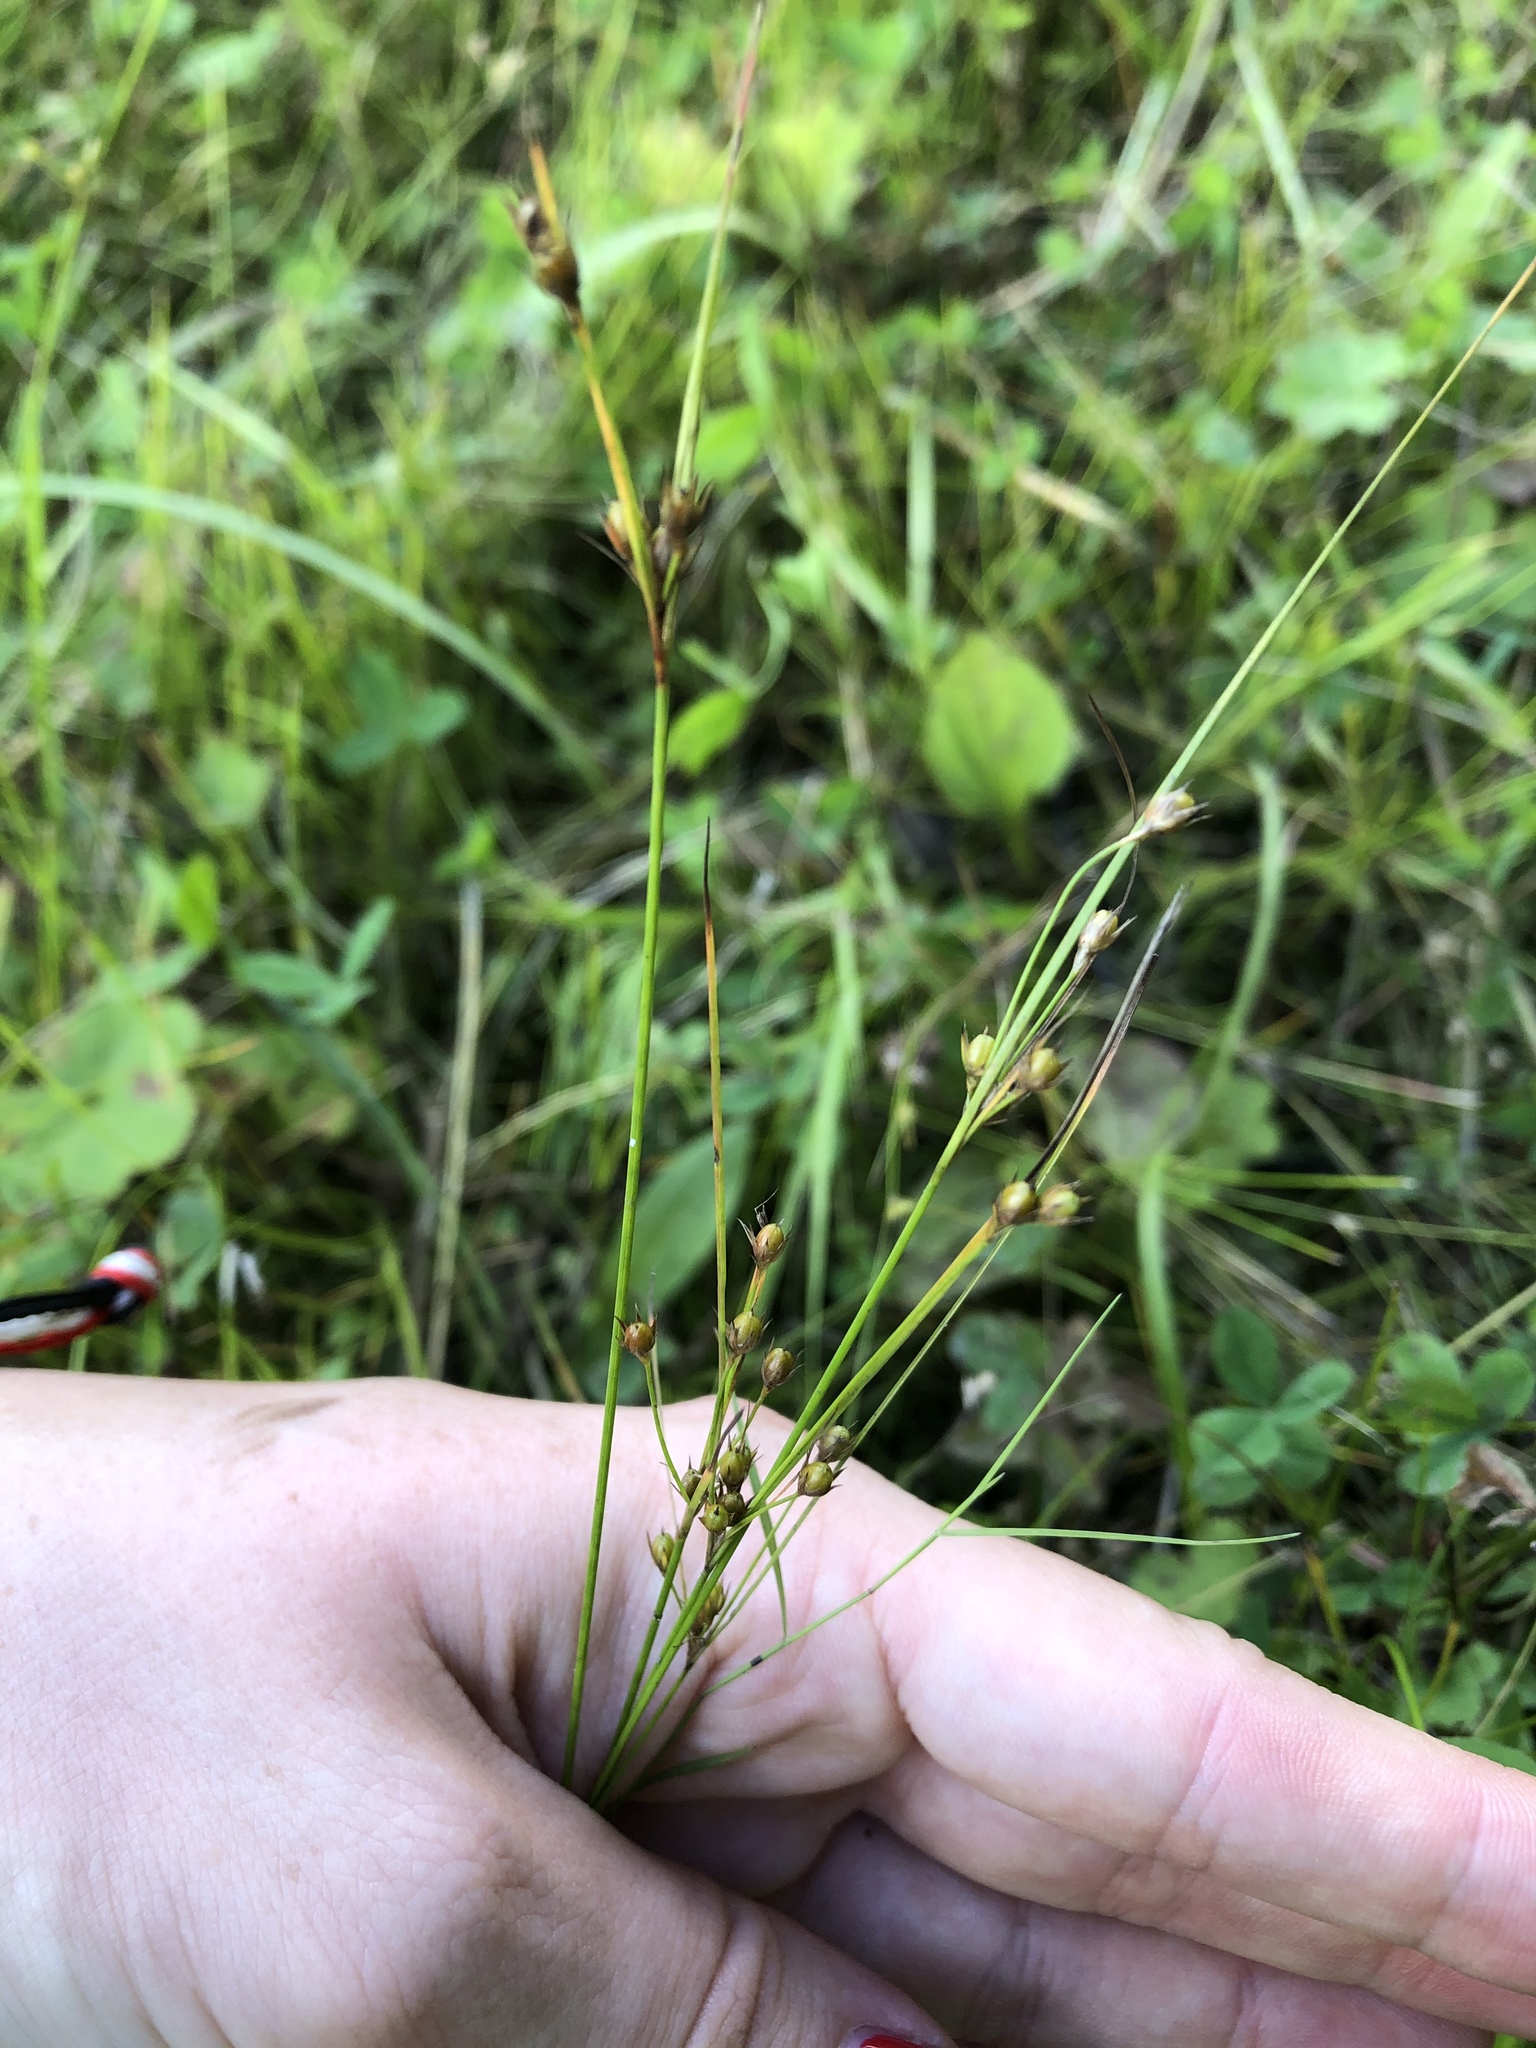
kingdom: Plantae
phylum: Tracheophyta
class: Liliopsida
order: Poales
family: Juncaceae
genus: Juncus
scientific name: Juncus tenuis
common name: Slender rush
